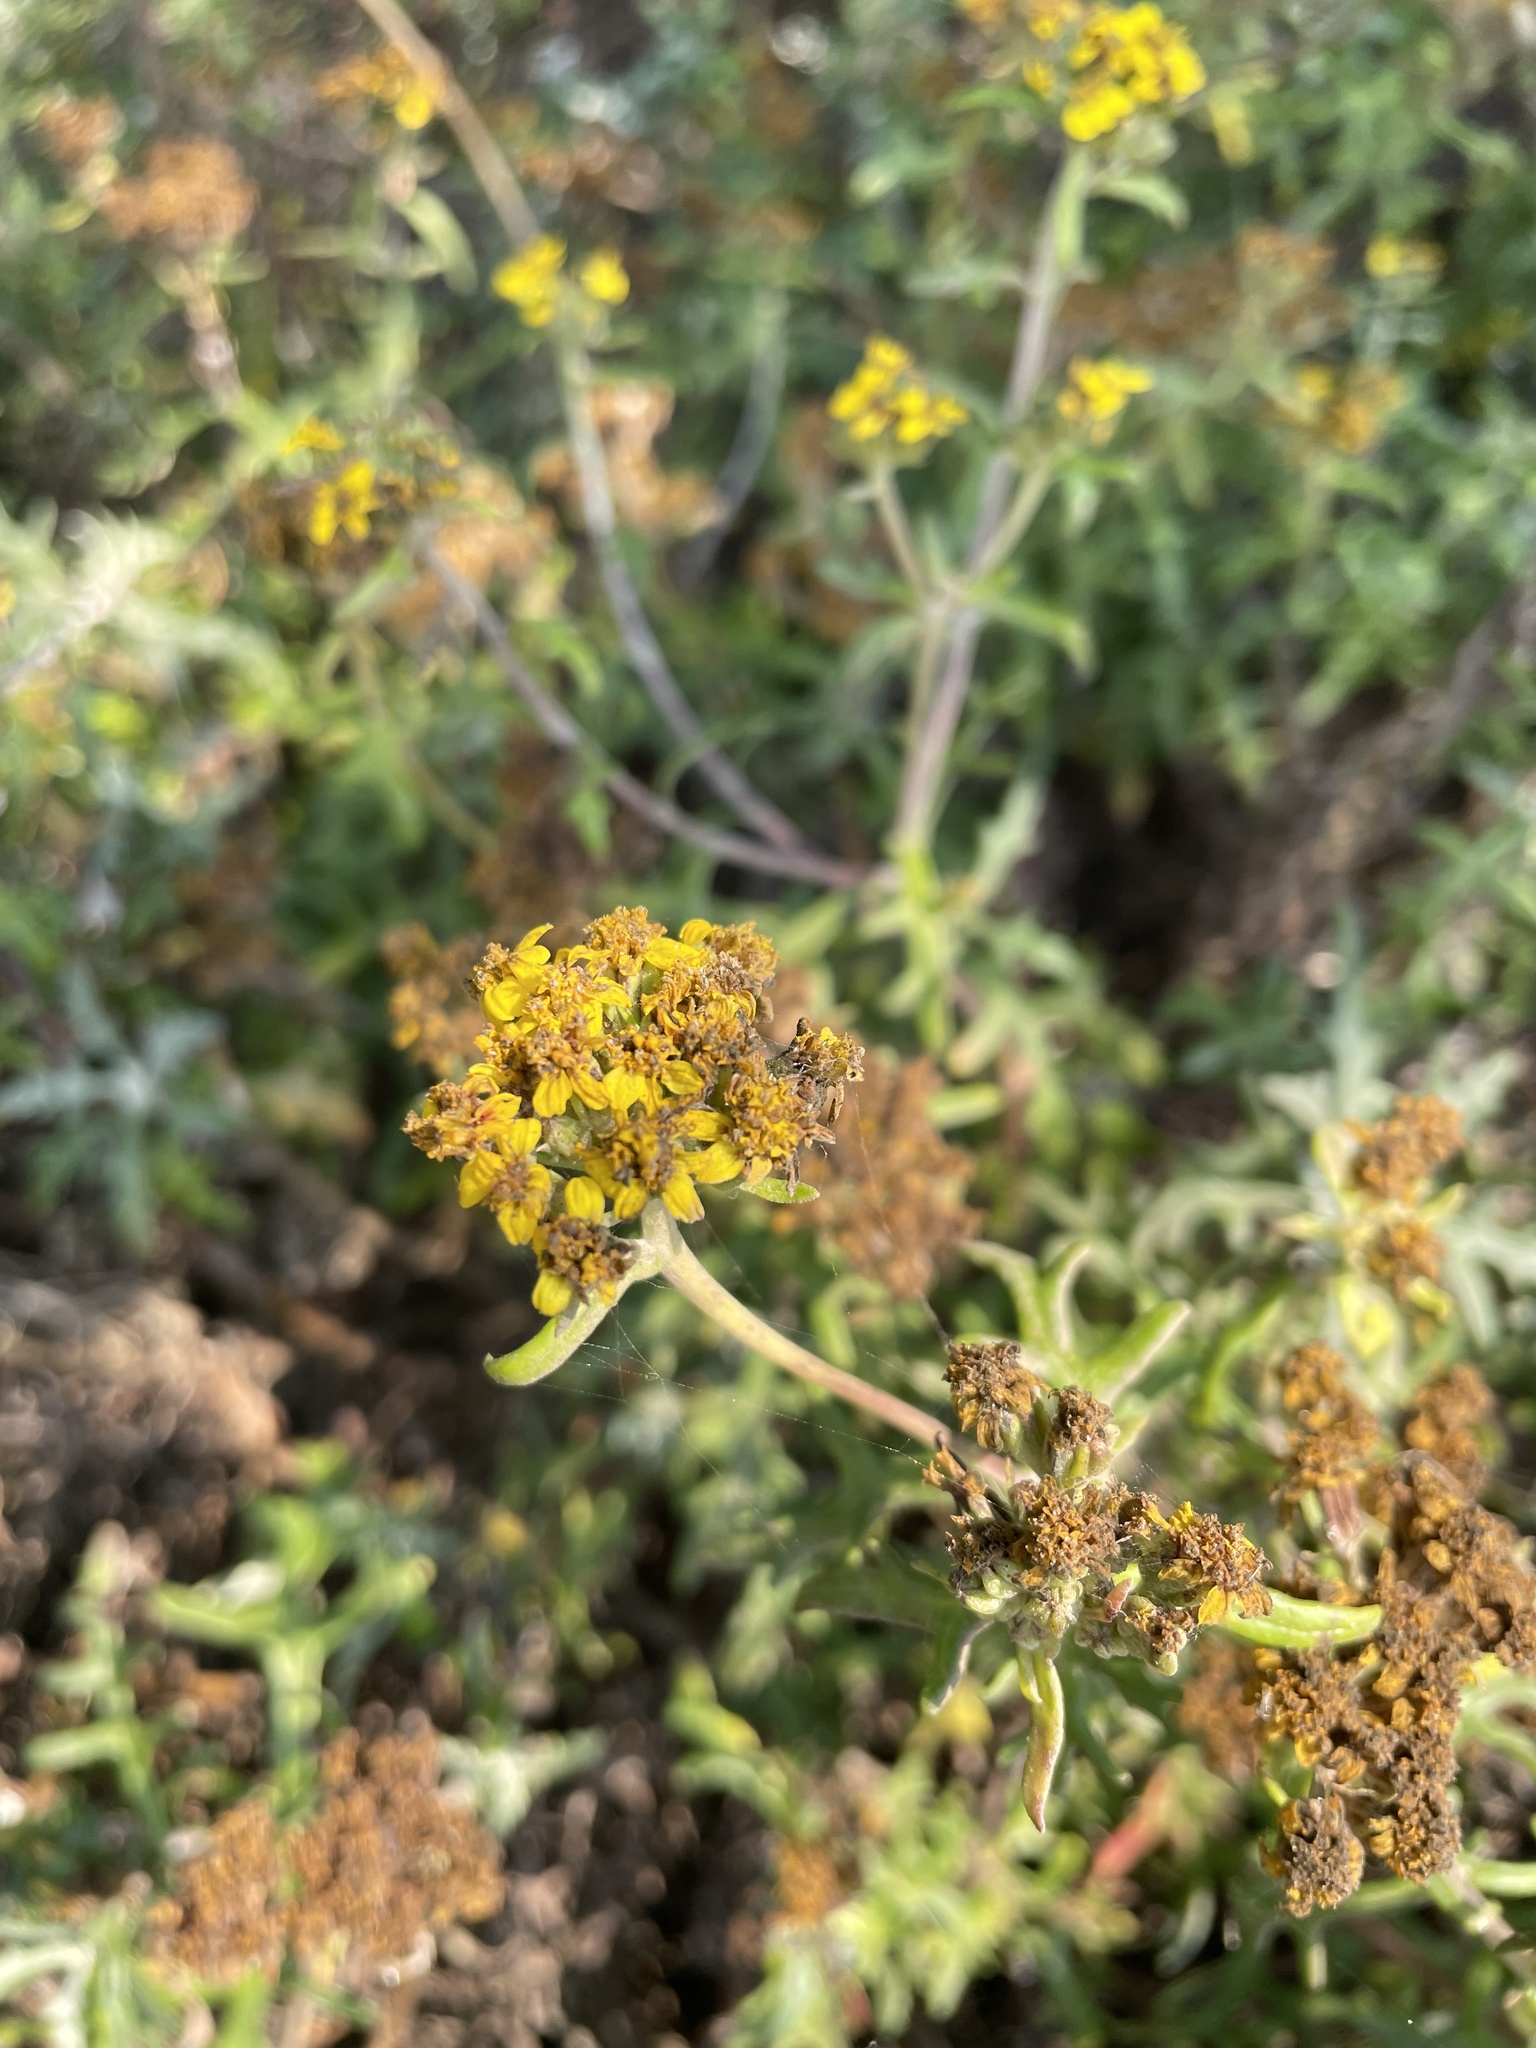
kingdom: Plantae
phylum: Tracheophyta
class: Magnoliopsida
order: Asterales
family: Asteraceae
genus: Eriophyllum
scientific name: Eriophyllum staechadifolium
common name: Lizardtail
